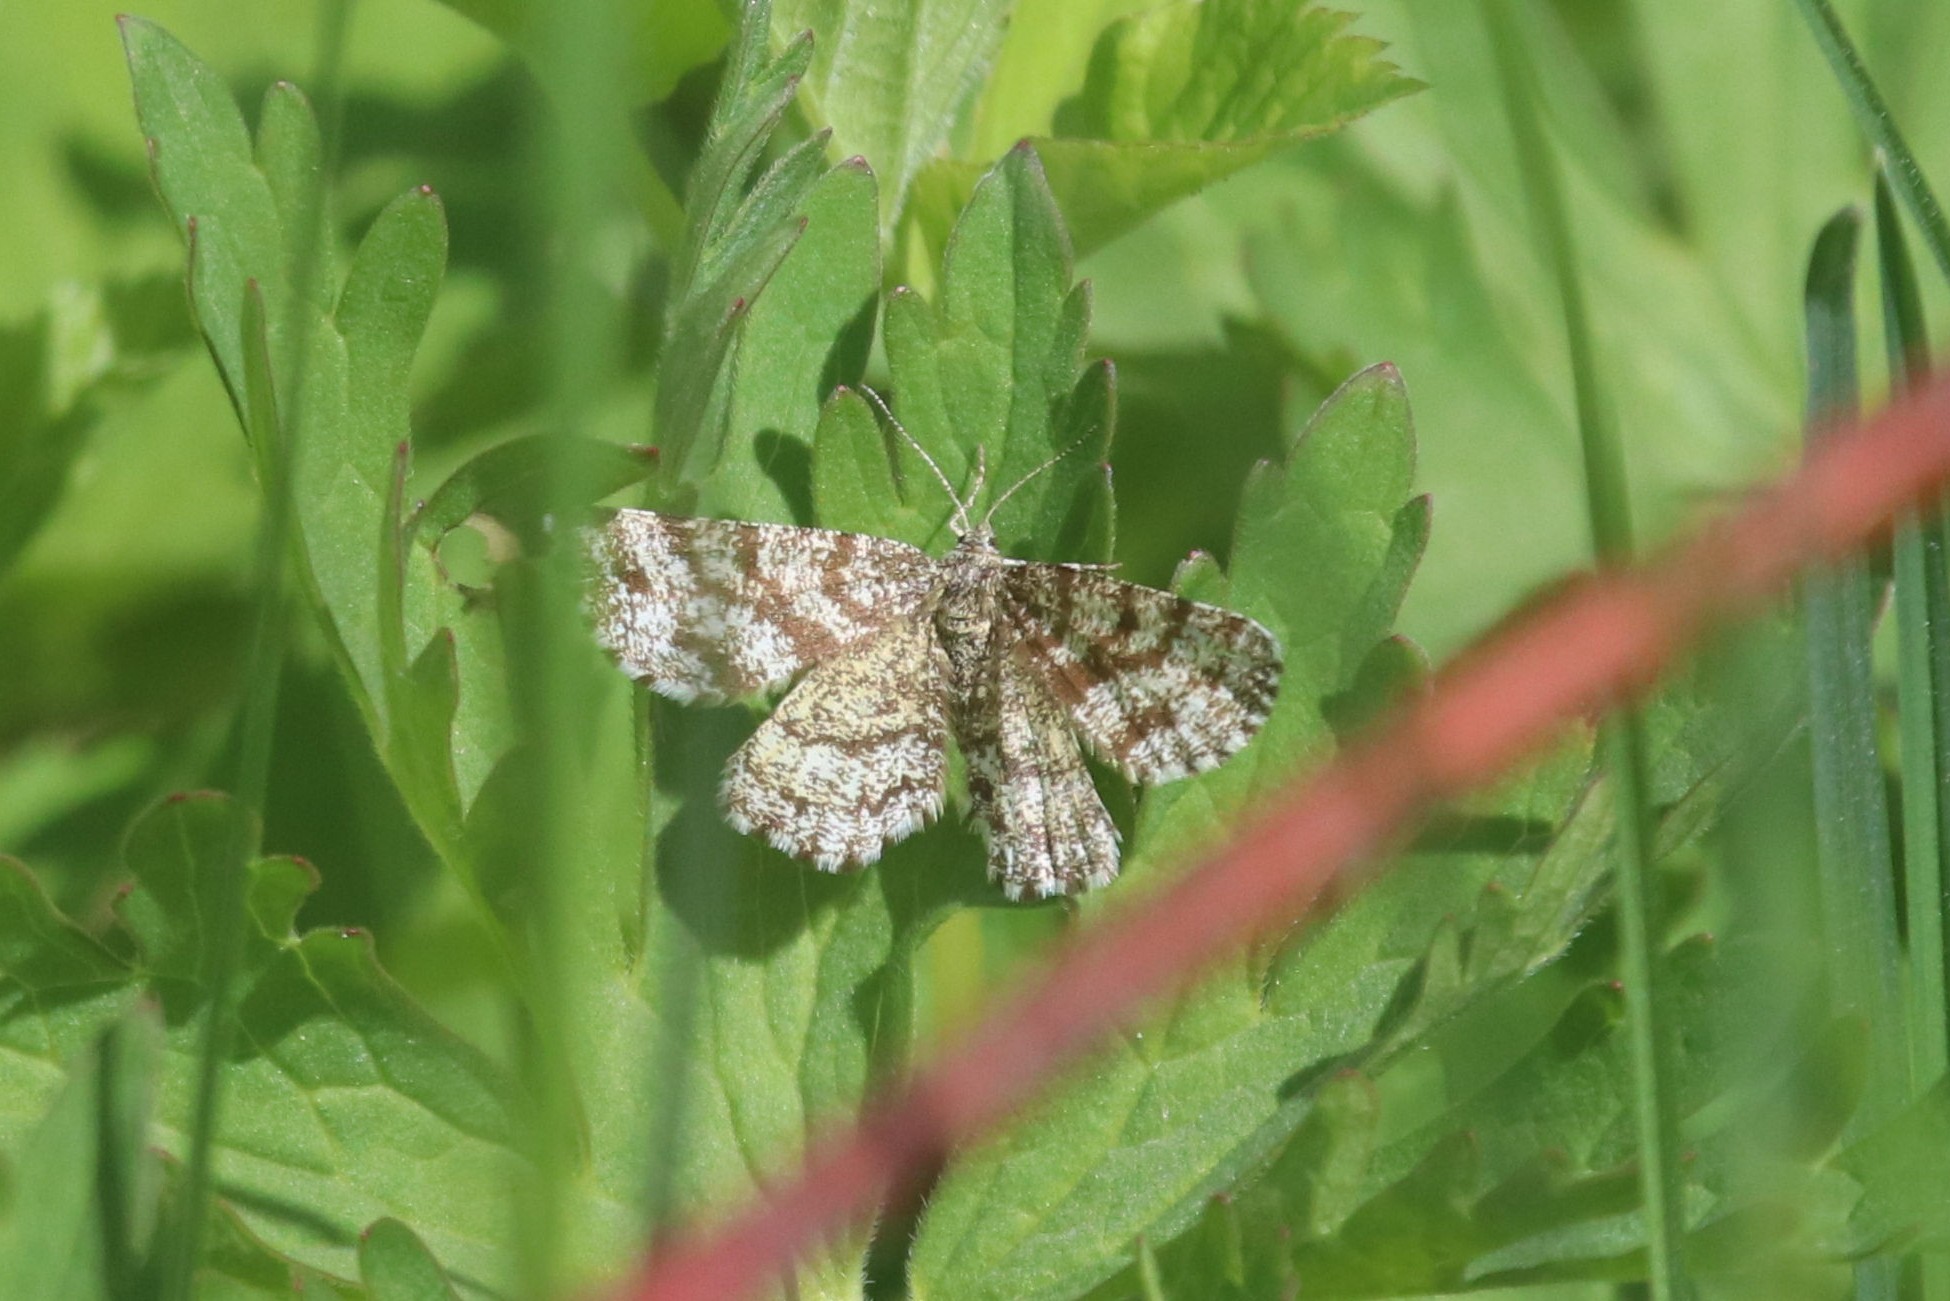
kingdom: Animalia
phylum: Arthropoda
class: Insecta
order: Lepidoptera
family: Geometridae
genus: Ematurga
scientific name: Ematurga atomaria
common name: Common heath
